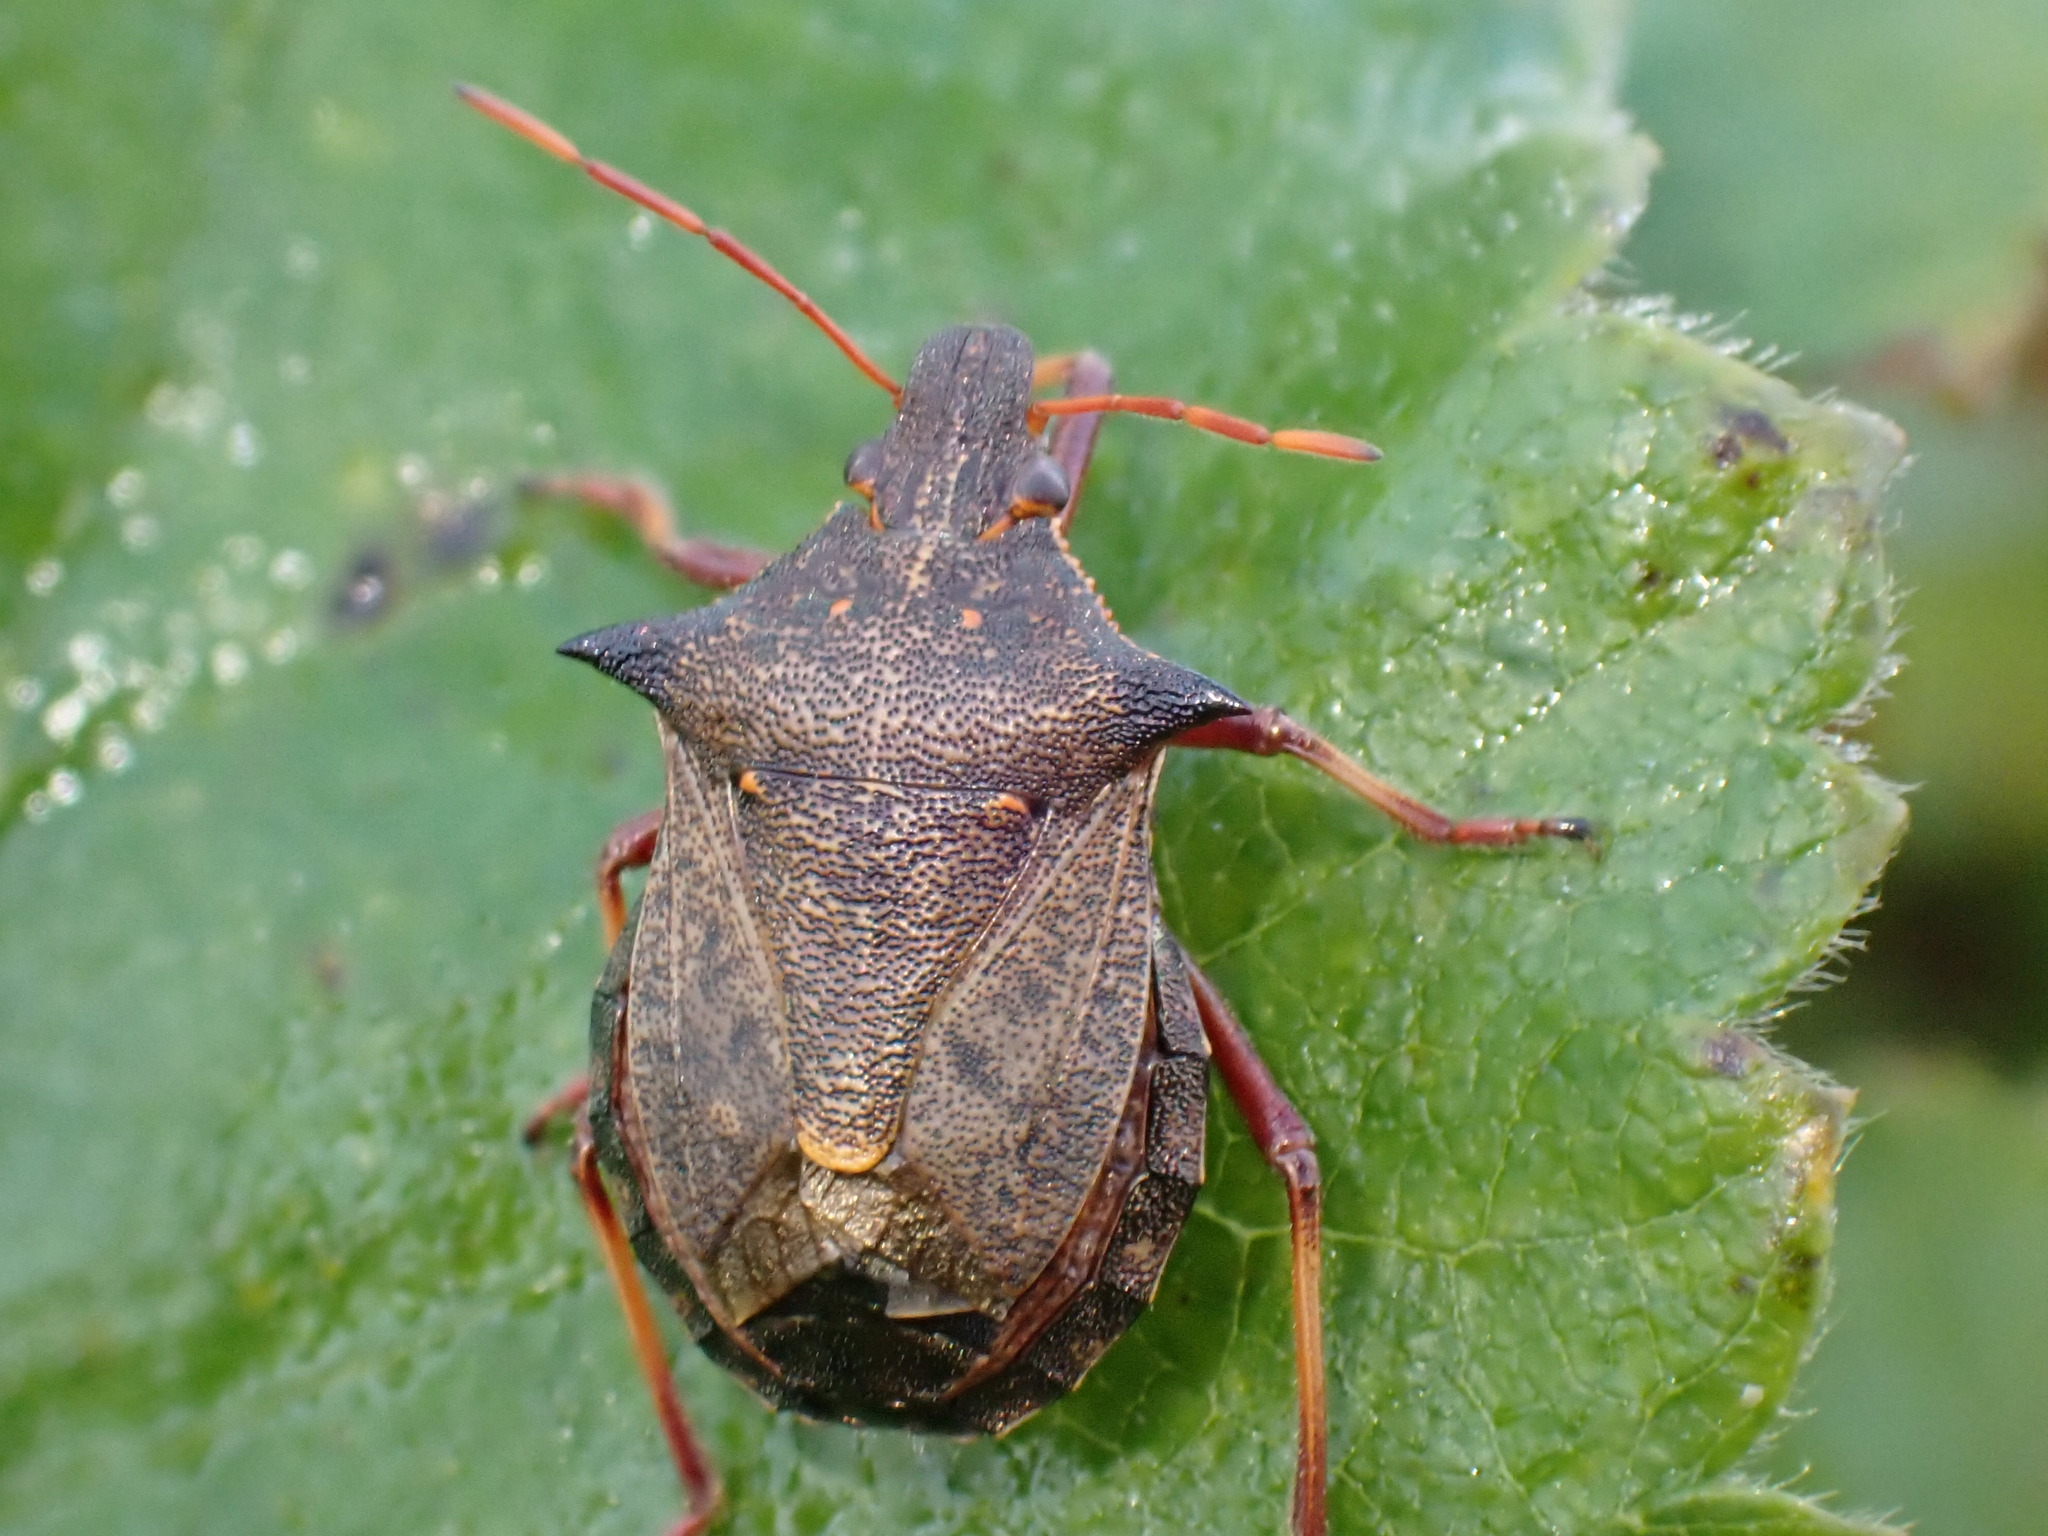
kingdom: Animalia
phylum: Arthropoda
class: Insecta
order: Hemiptera
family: Pentatomidae
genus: Picromerus
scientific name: Picromerus bidens
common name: Spiked shieldbug
